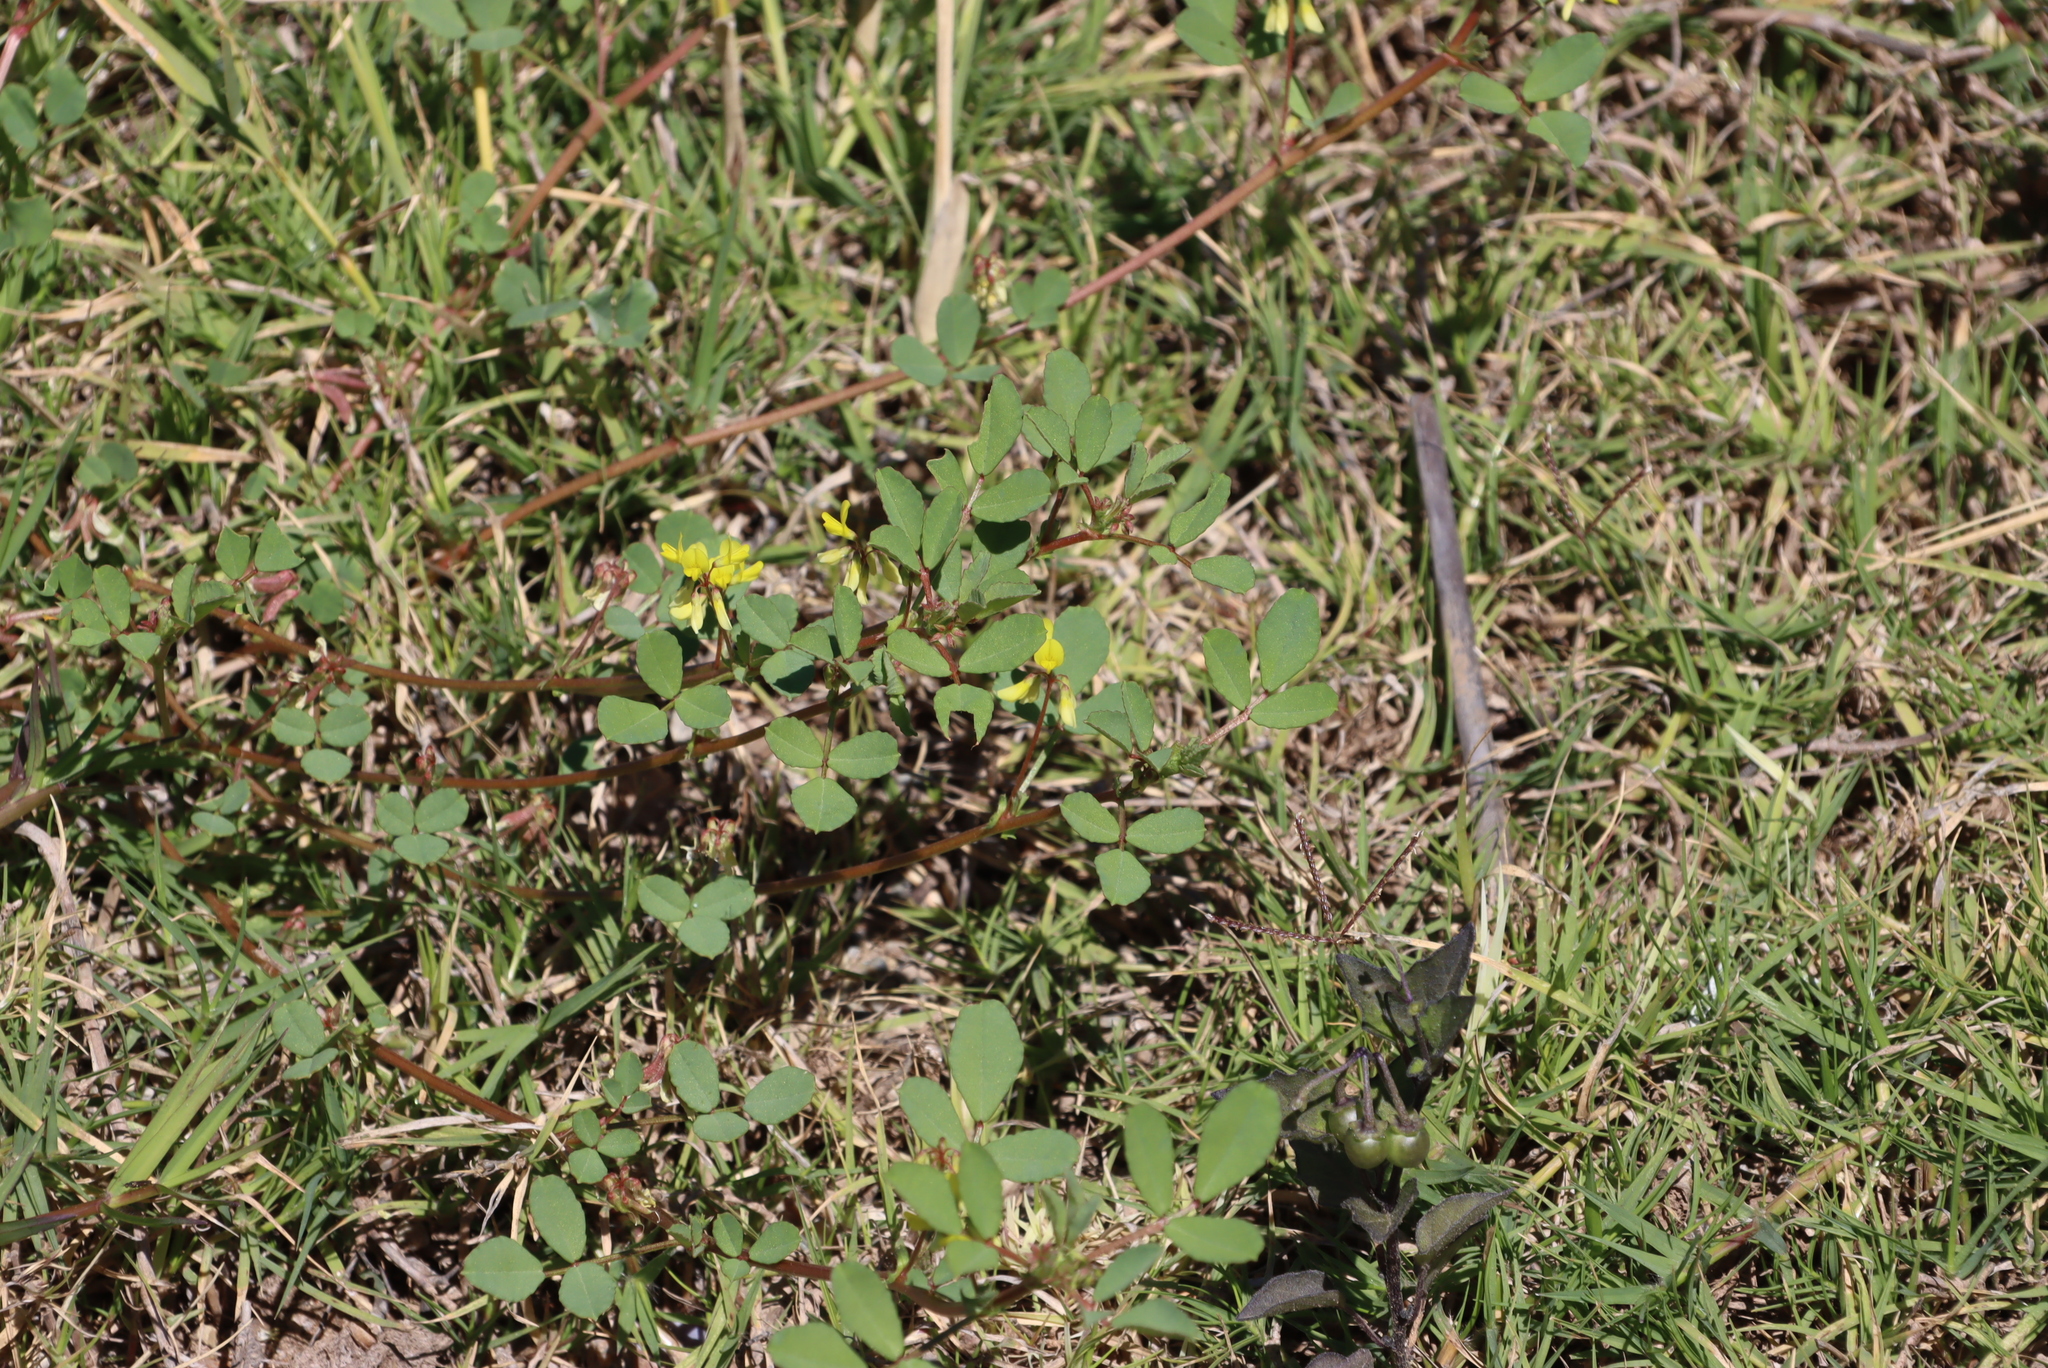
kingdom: Plantae
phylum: Tracheophyta
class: Magnoliopsida
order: Fabales
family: Fabaceae
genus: Medicago
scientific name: Medicago polymorpha
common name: Burclover
